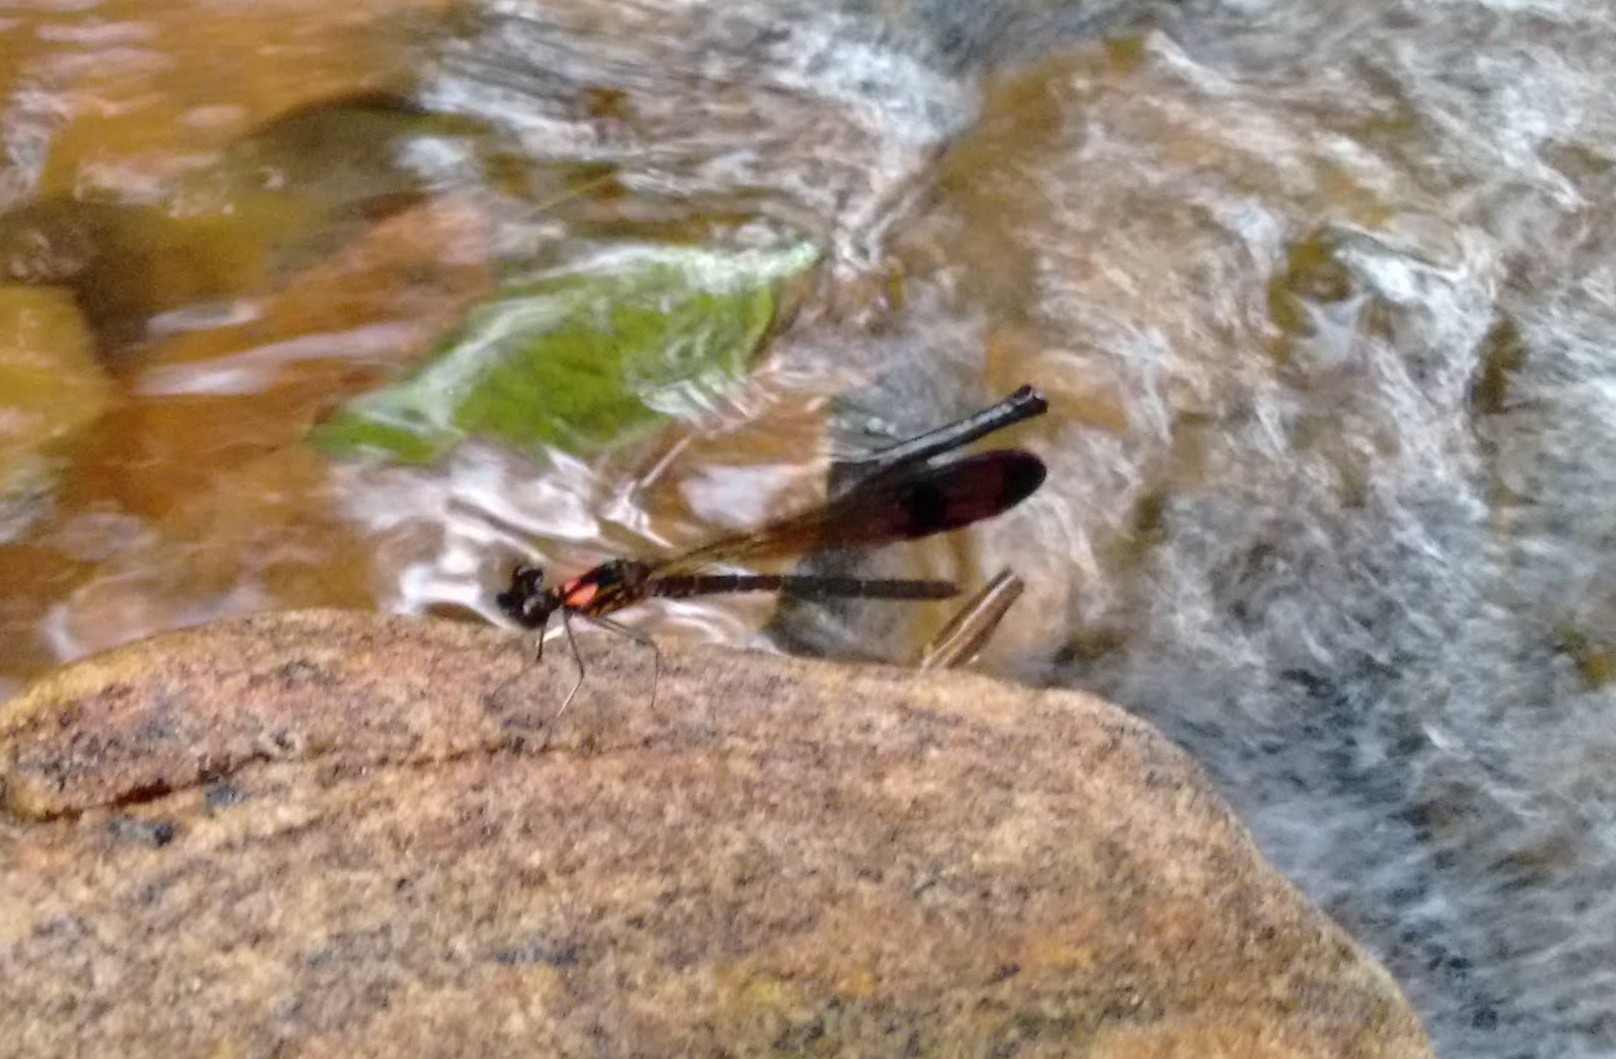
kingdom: Animalia
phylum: Arthropoda
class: Insecta
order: Odonata
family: Chlorocyphidae
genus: Heliocypha
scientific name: Heliocypha bisignata
